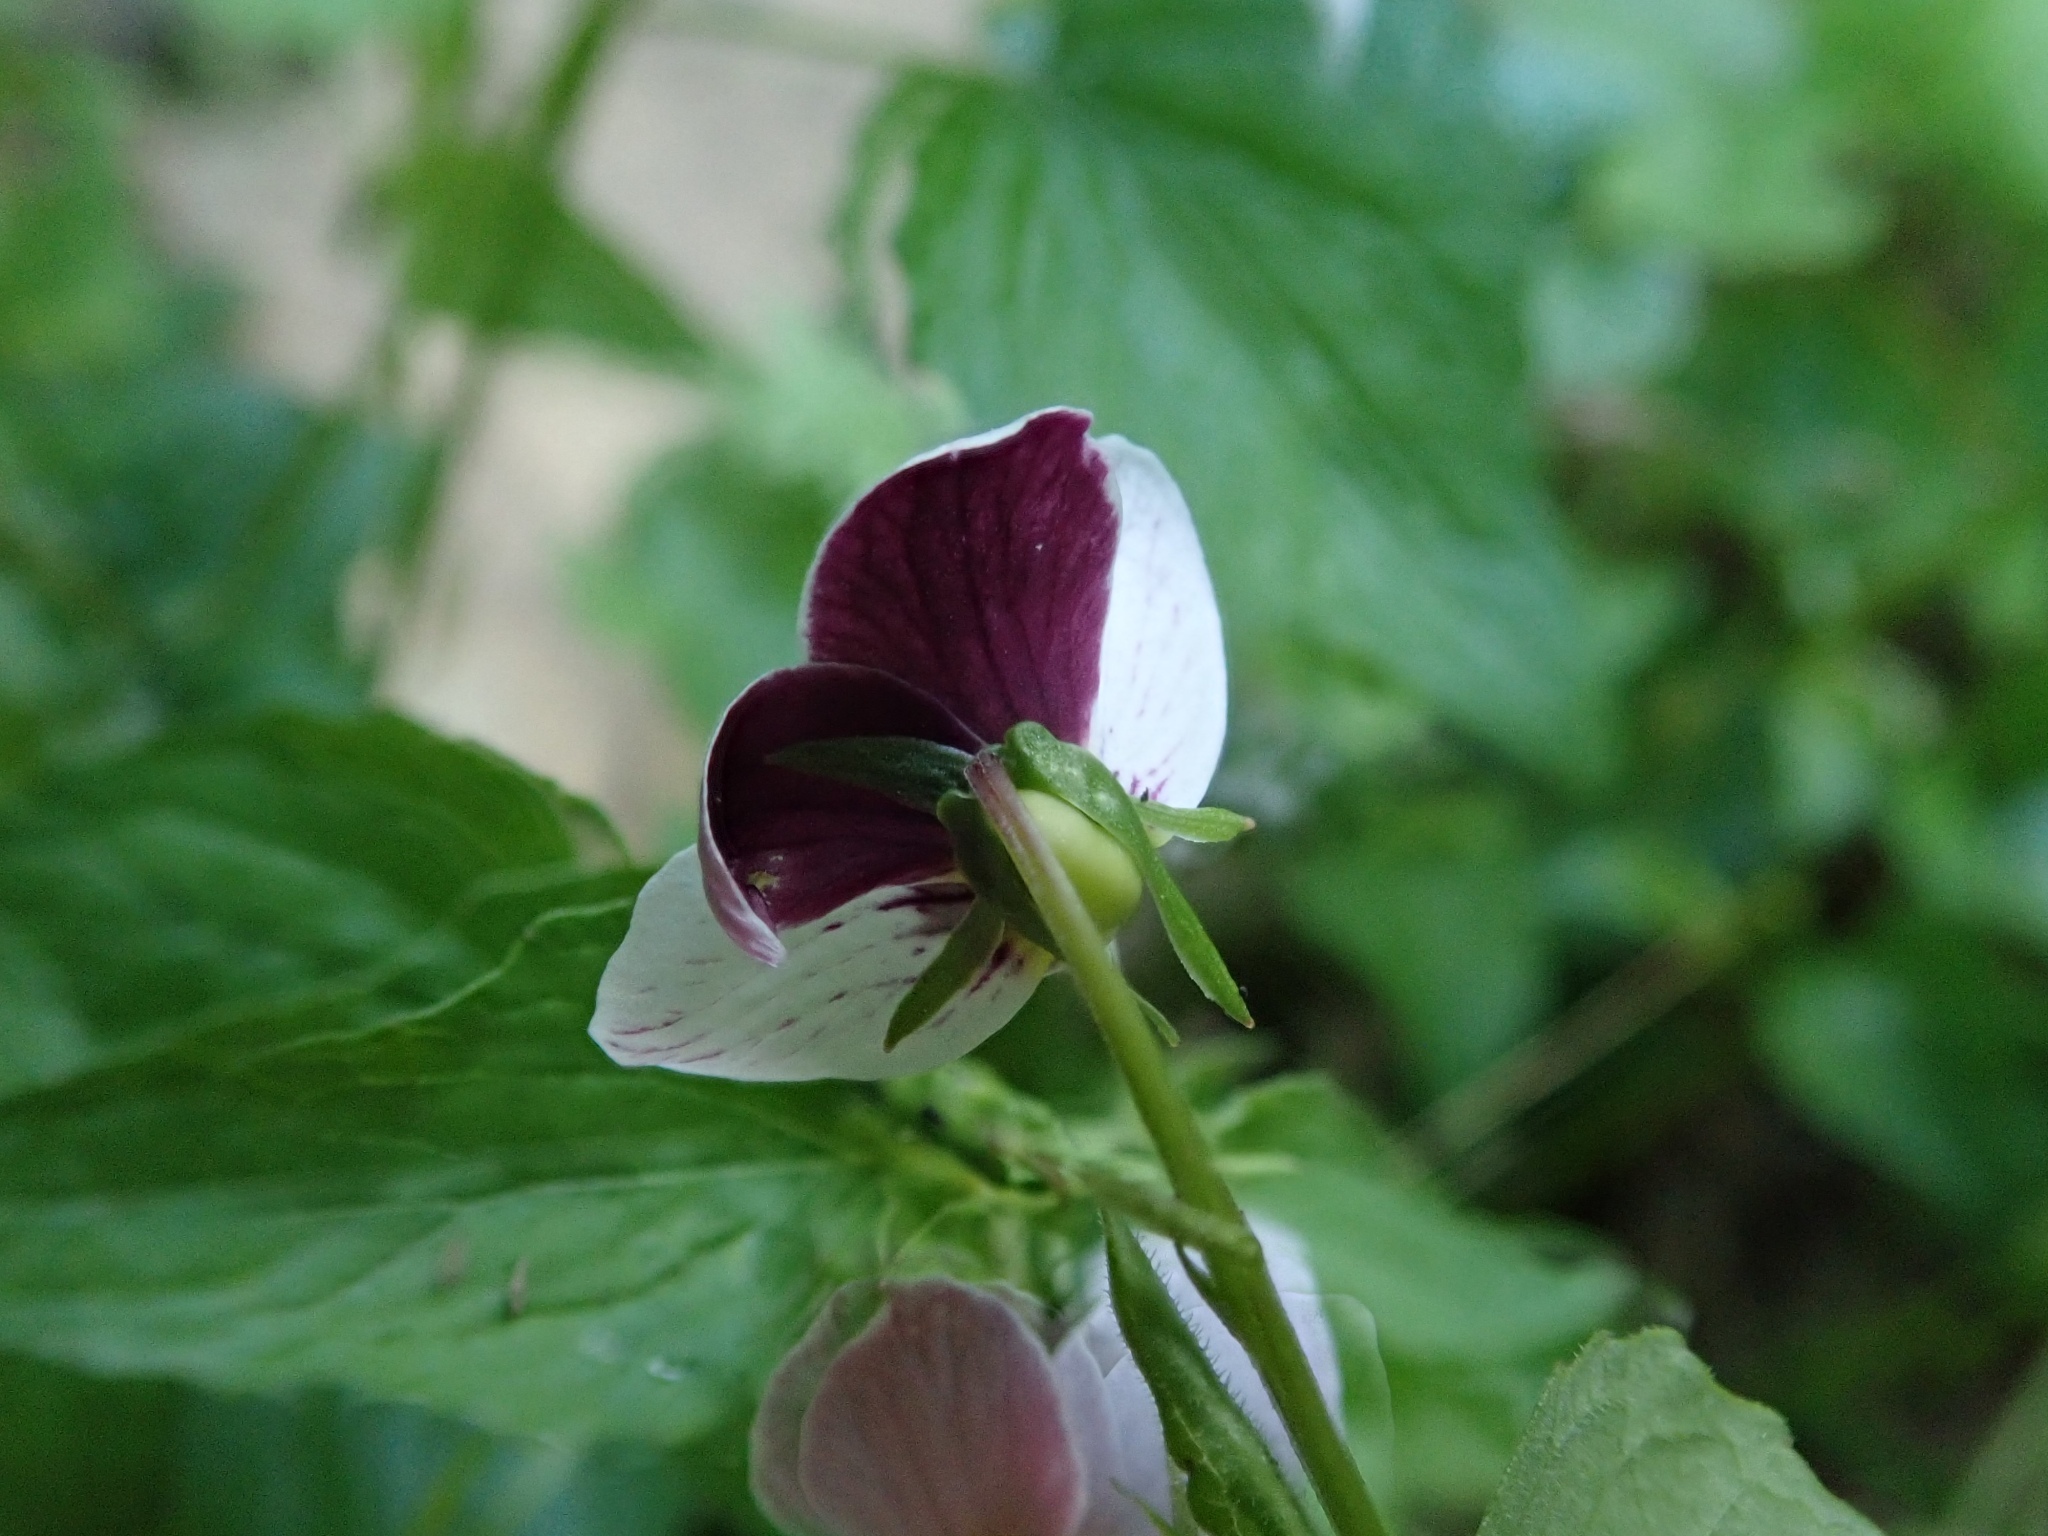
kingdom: Plantae
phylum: Tracheophyta
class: Magnoliopsida
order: Malpighiales
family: Violaceae
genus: Viola
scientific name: Viola ocellata
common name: Western heart's ease
